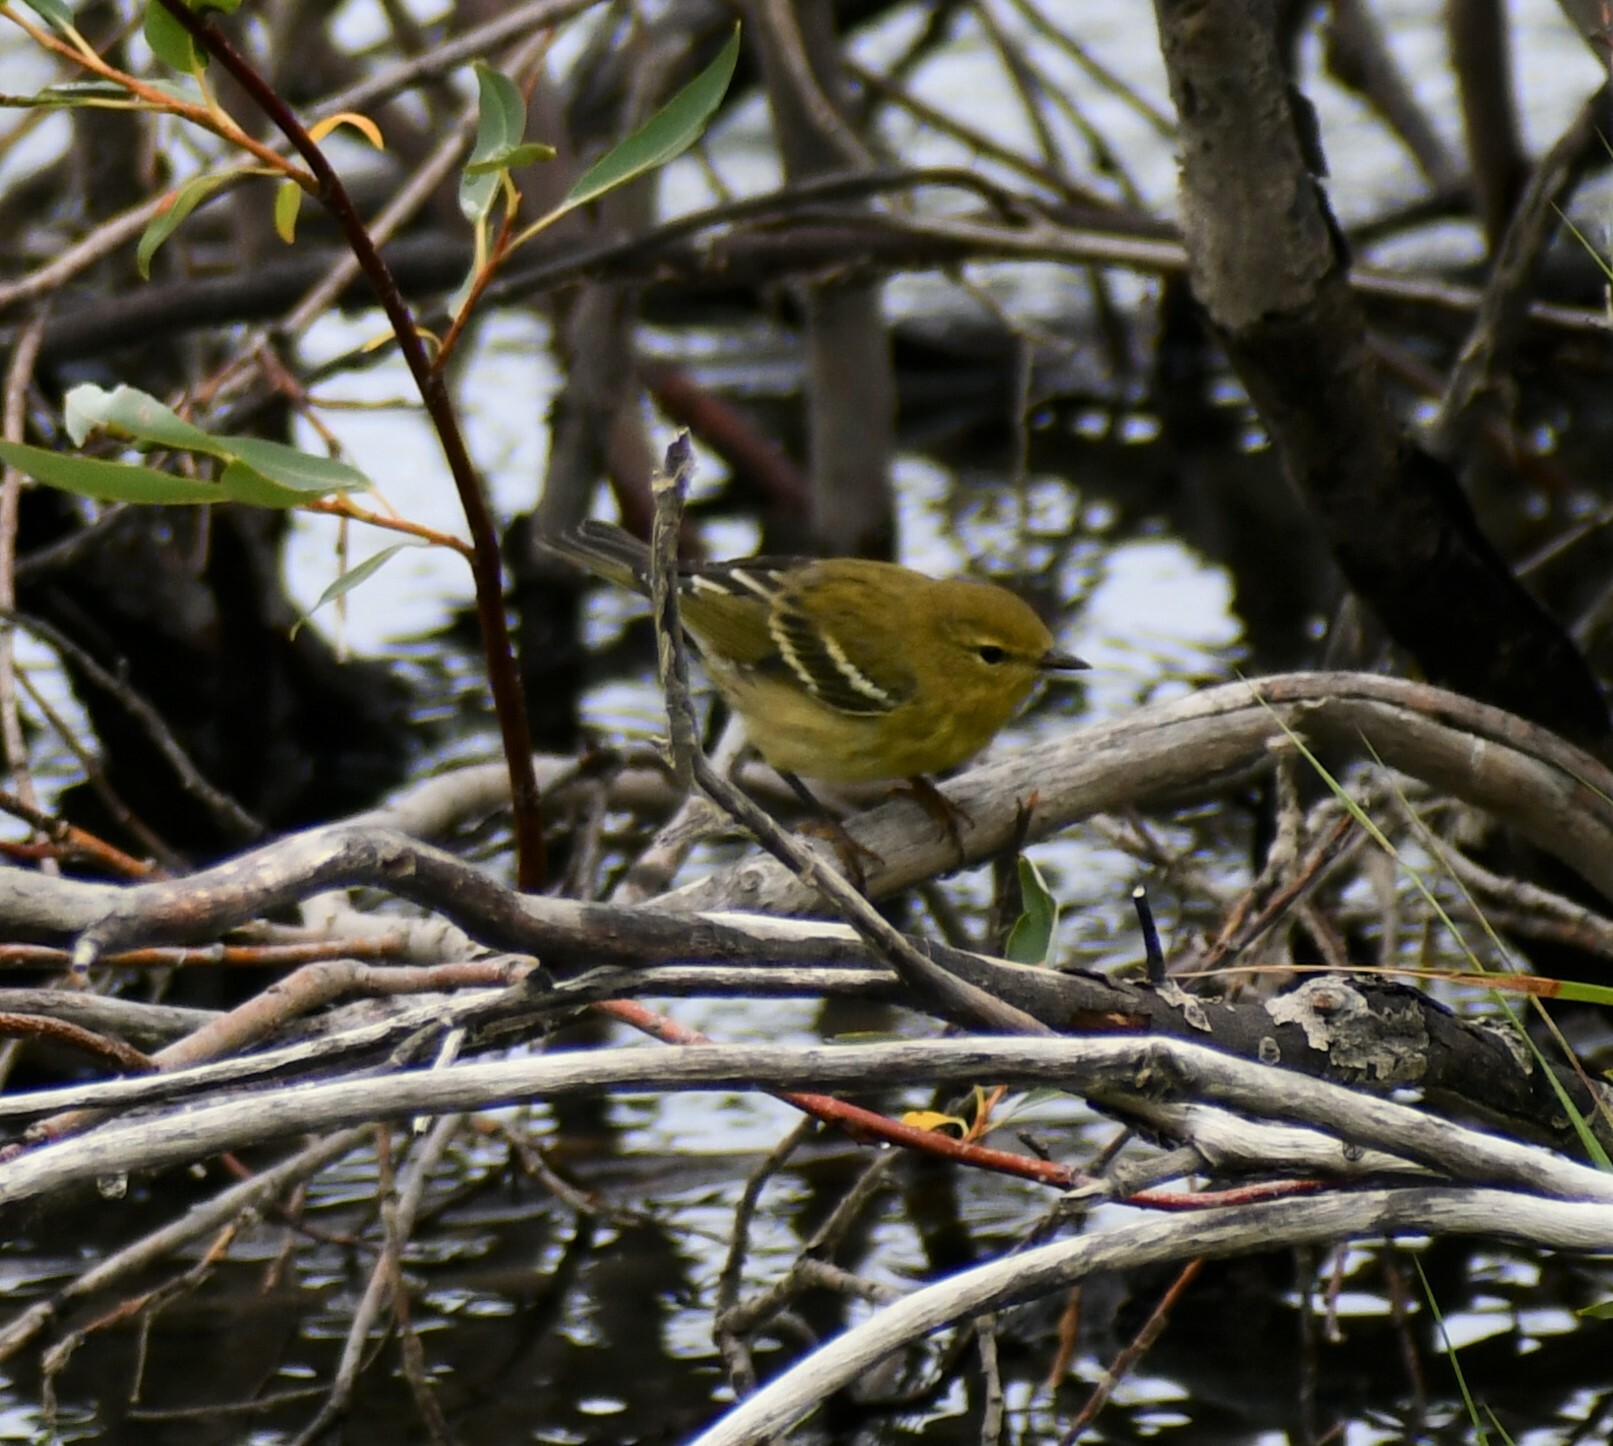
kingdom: Animalia
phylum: Chordata
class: Aves
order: Passeriformes
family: Parulidae
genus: Setophaga
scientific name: Setophaga striata
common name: Blackpoll warbler
